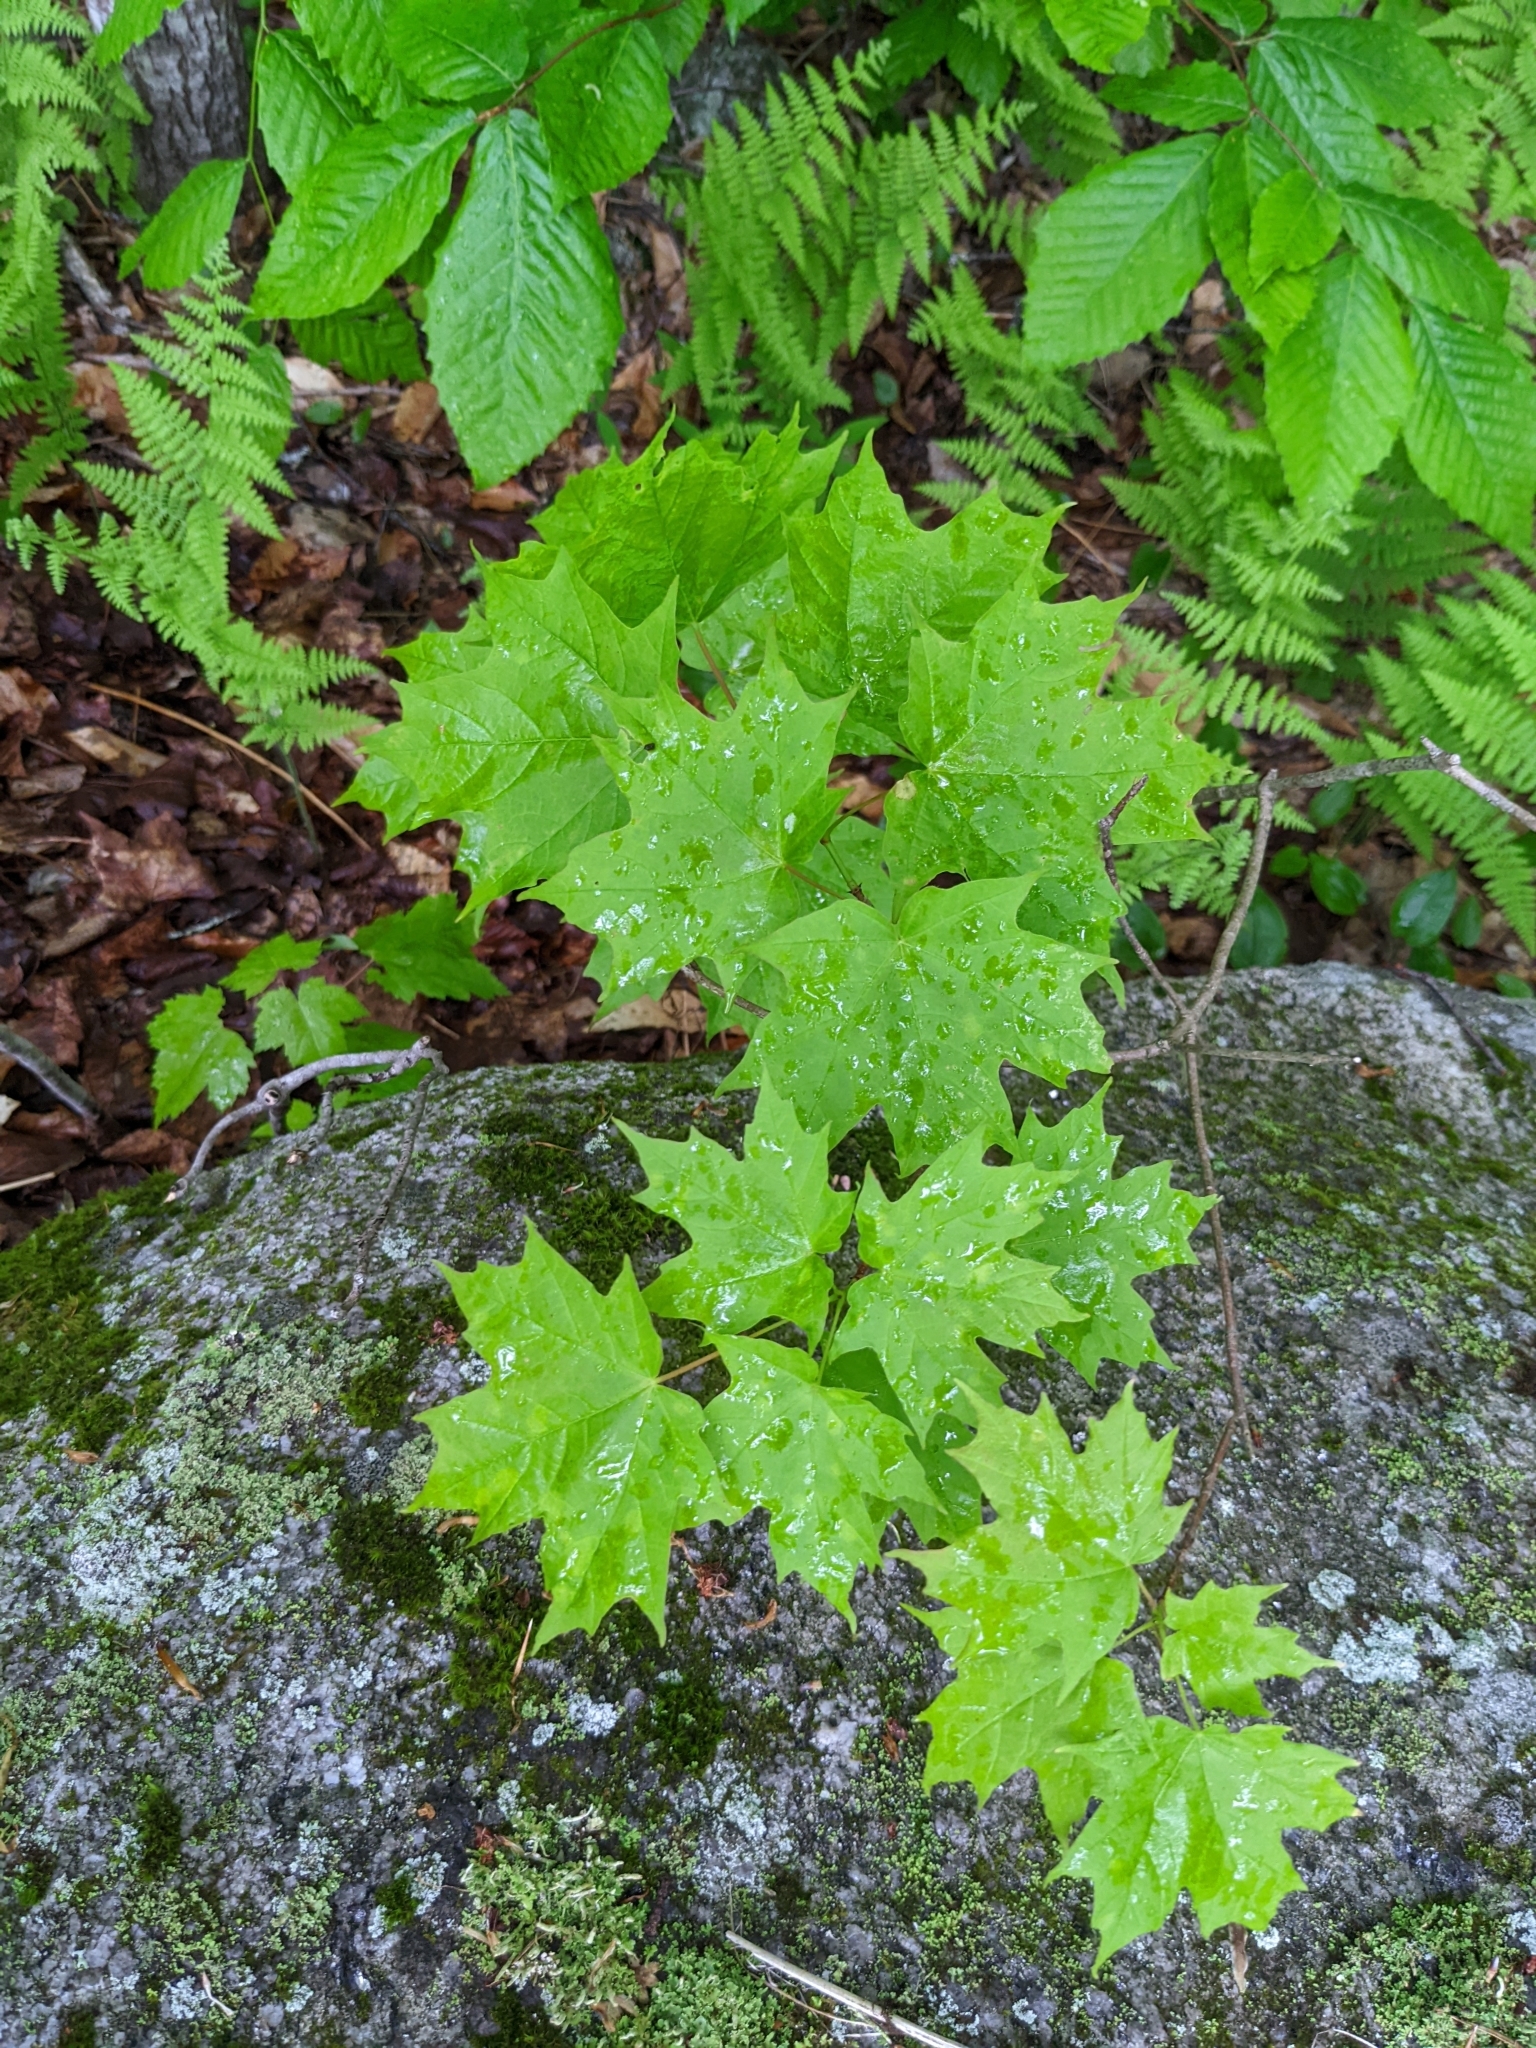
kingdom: Plantae
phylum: Tracheophyta
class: Magnoliopsida
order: Sapindales
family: Sapindaceae
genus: Acer
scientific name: Acer saccharum
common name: Sugar maple
